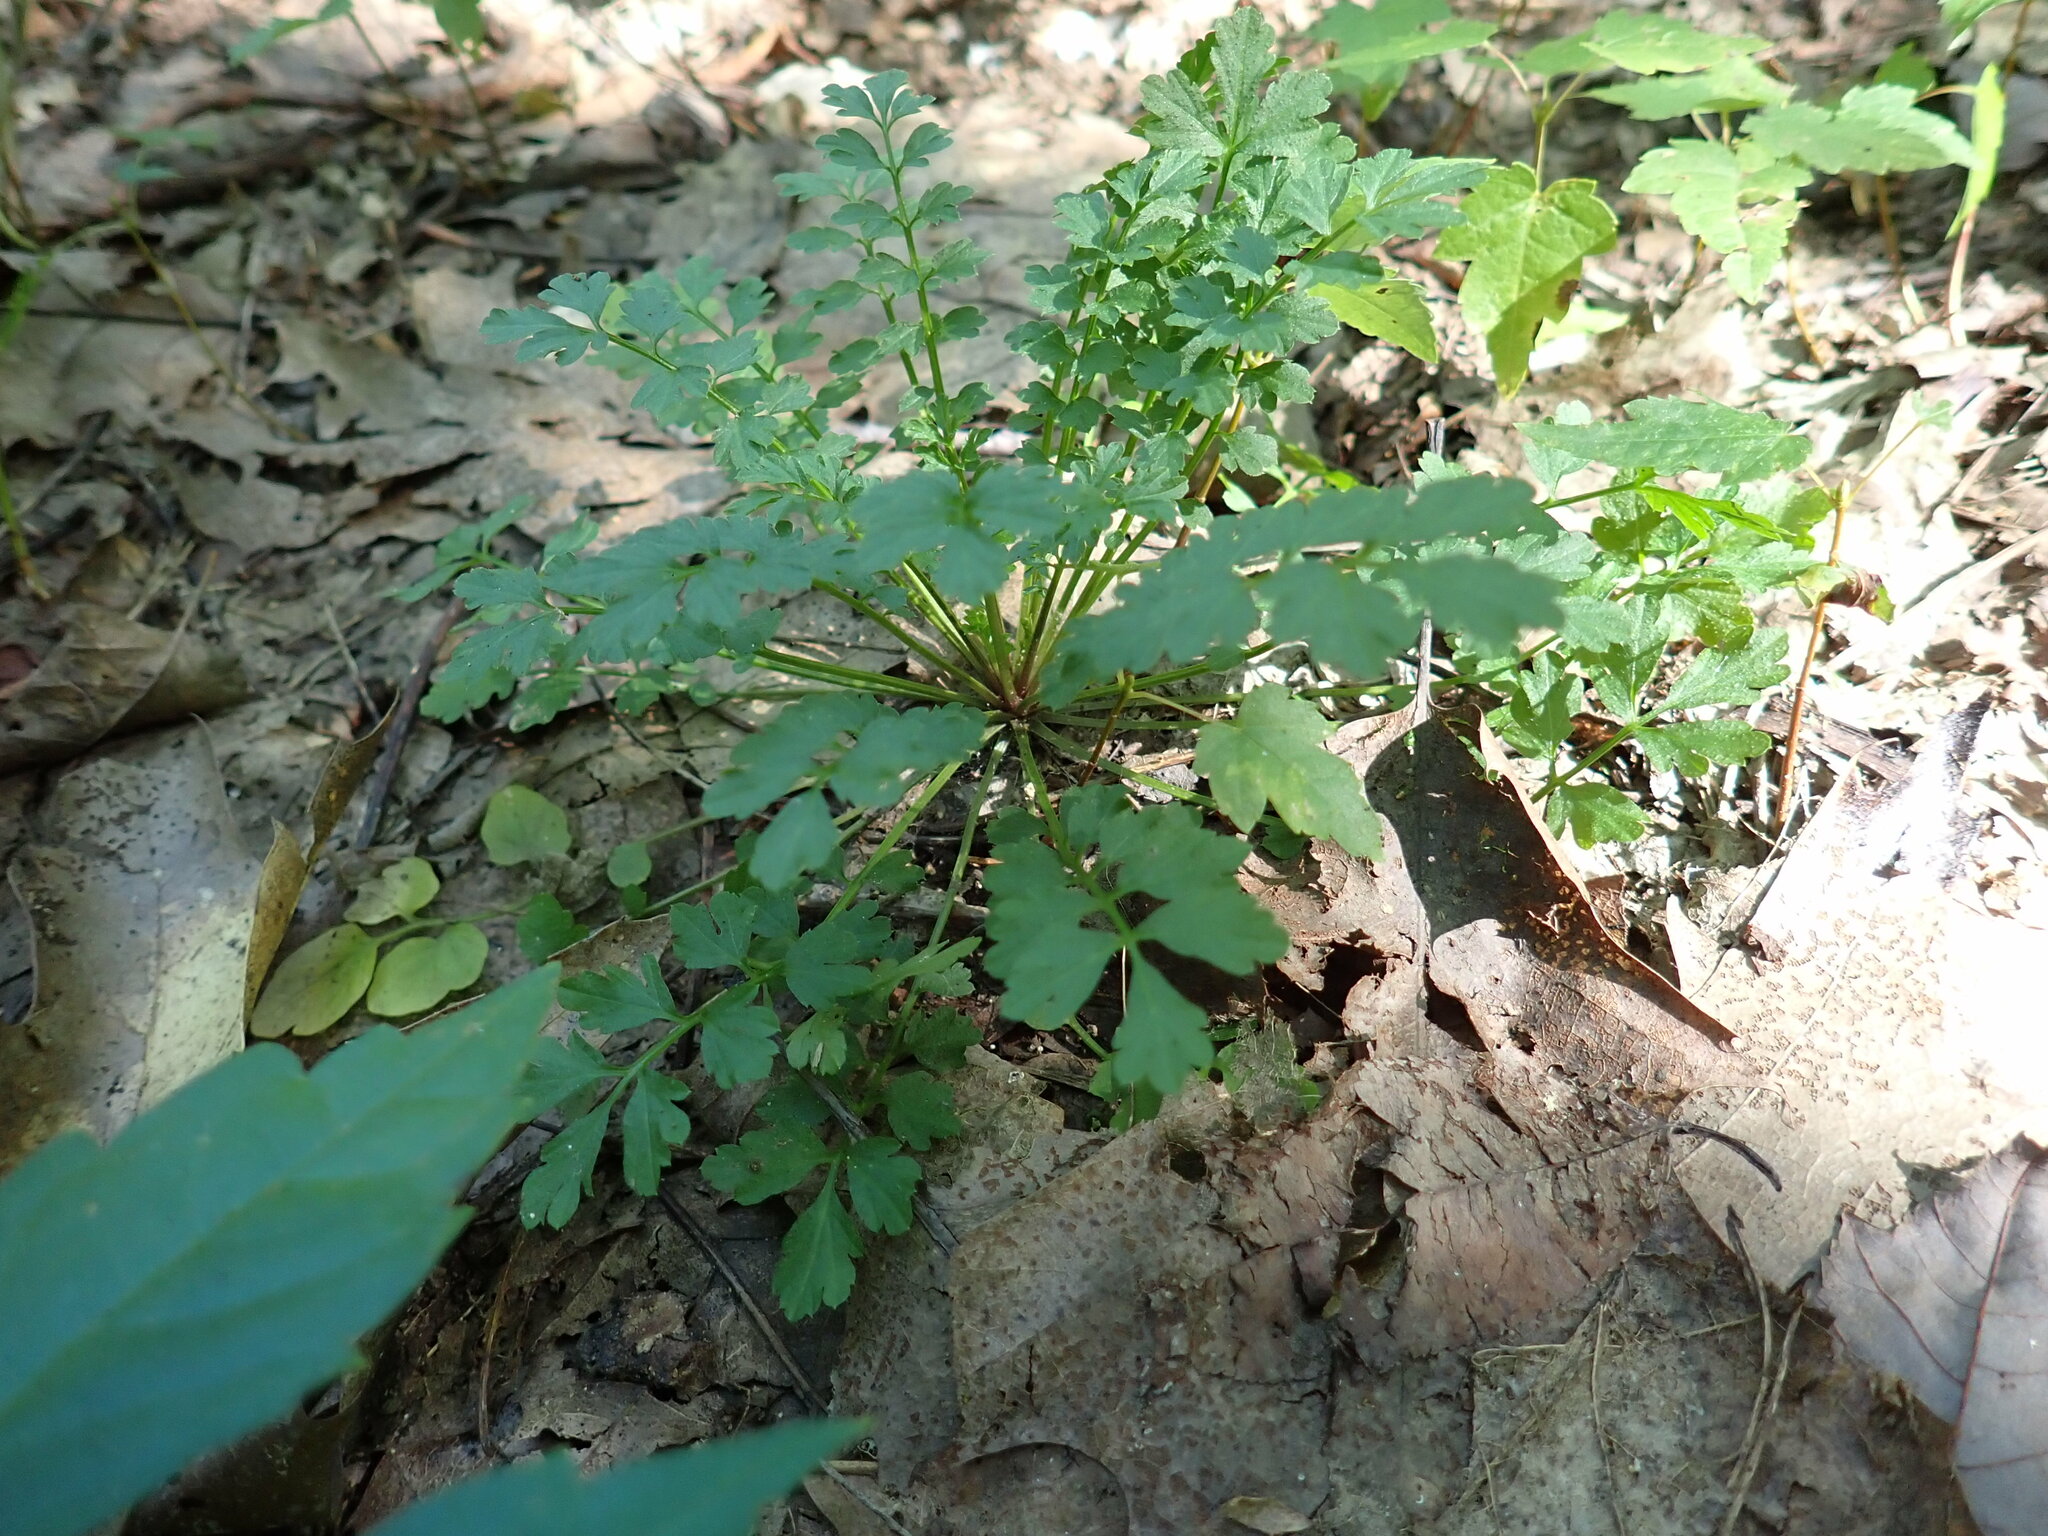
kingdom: Plantae
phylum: Tracheophyta
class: Magnoliopsida
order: Brassicales
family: Brassicaceae
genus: Cardamine
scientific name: Cardamine impatiens
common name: Narrow-leaved bitter-cress
